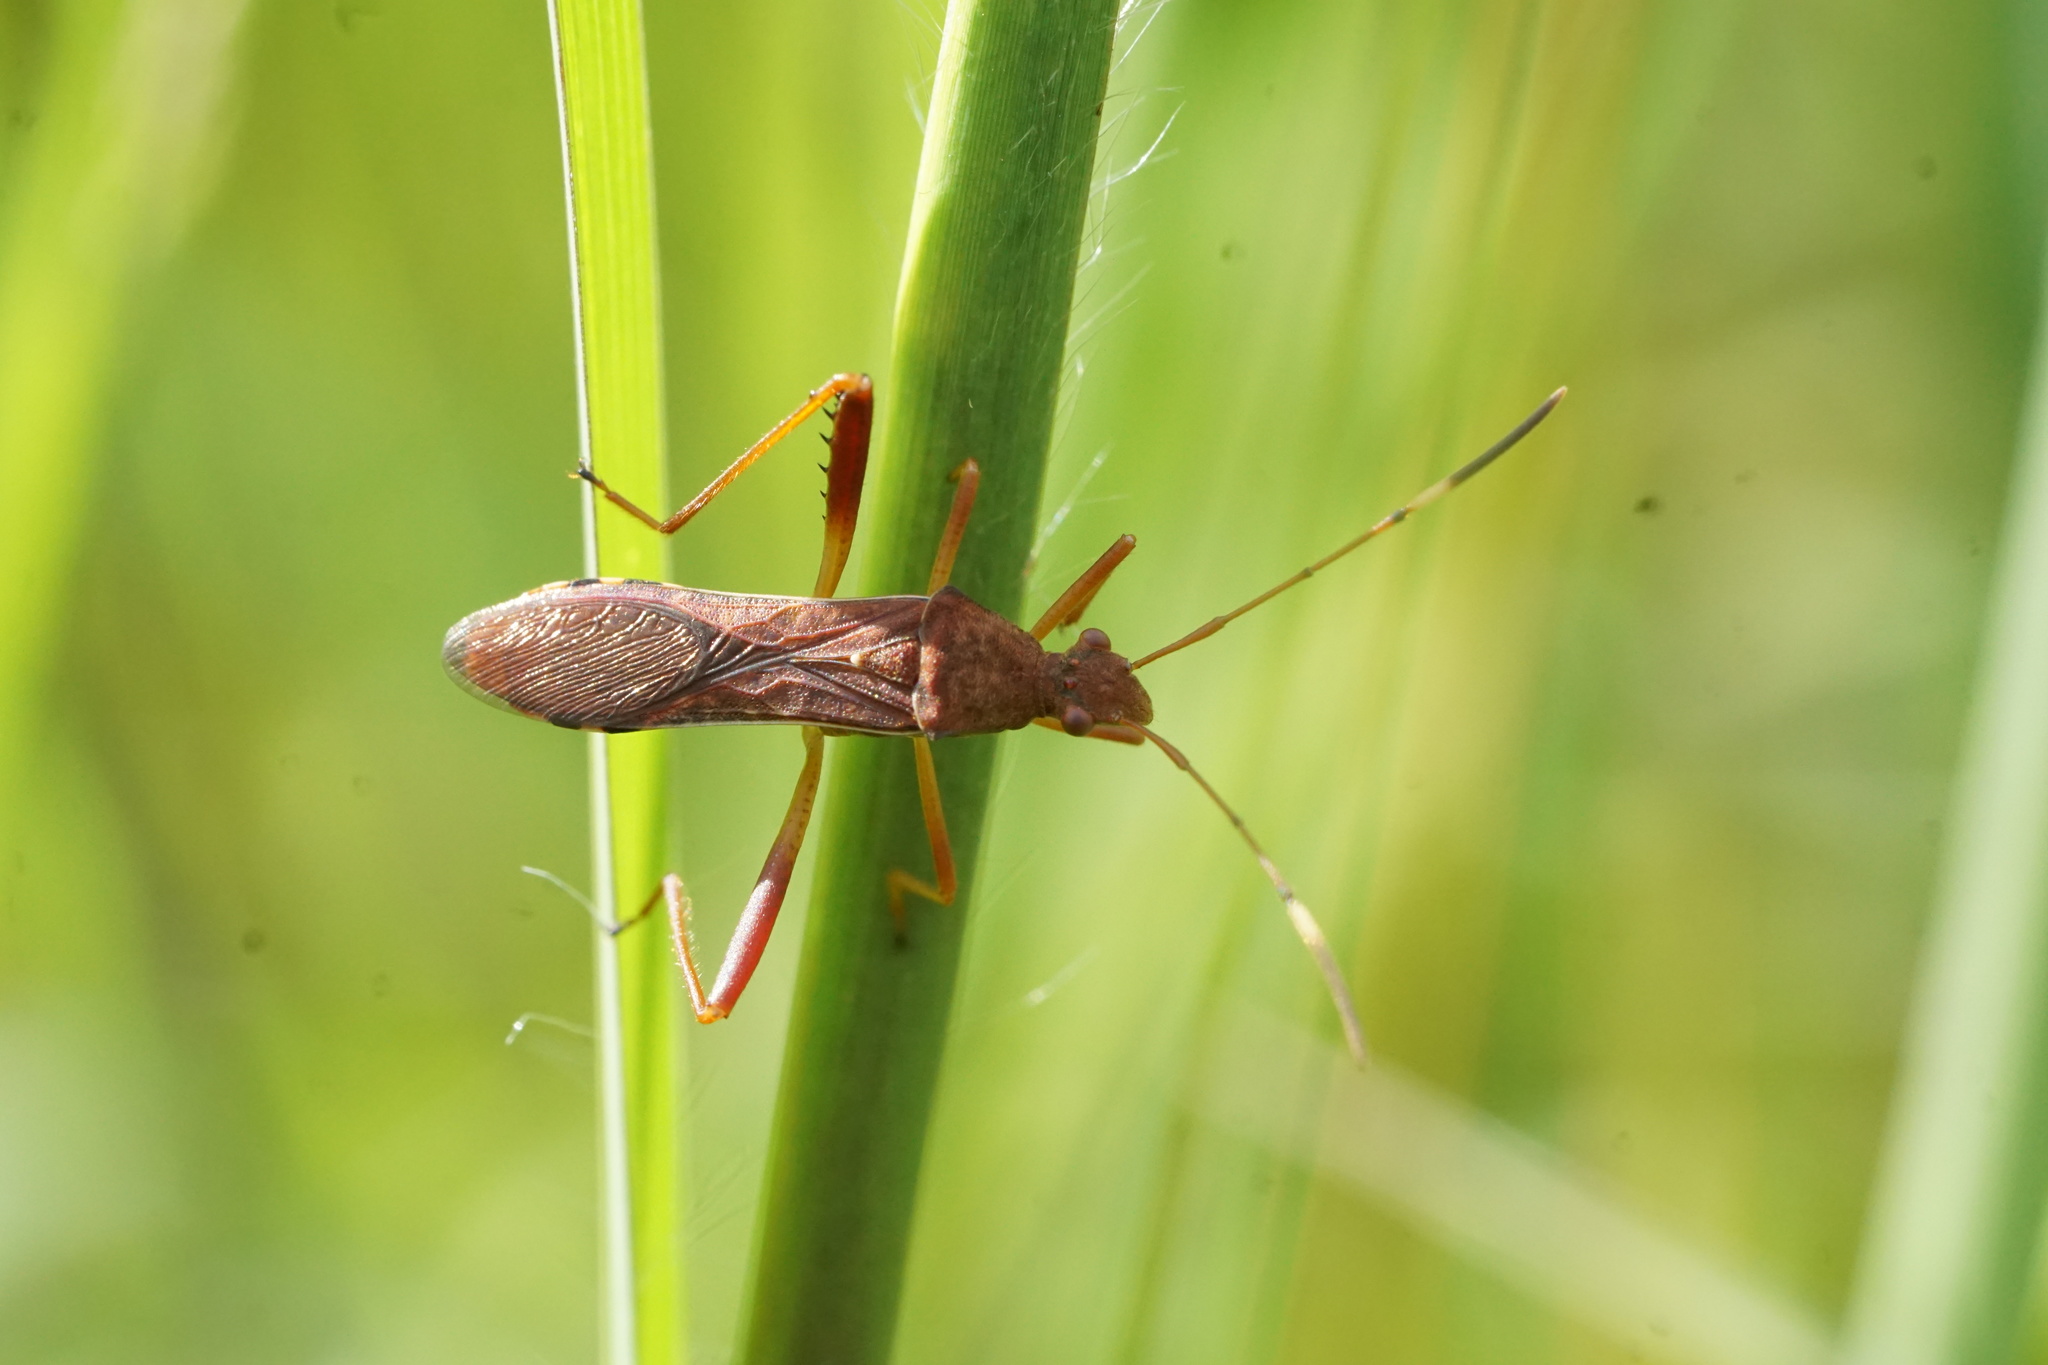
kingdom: Animalia
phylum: Arthropoda
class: Insecta
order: Hemiptera
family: Alydidae
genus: Megalotomus
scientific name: Megalotomus quinquespinosus
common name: Lupine bug
